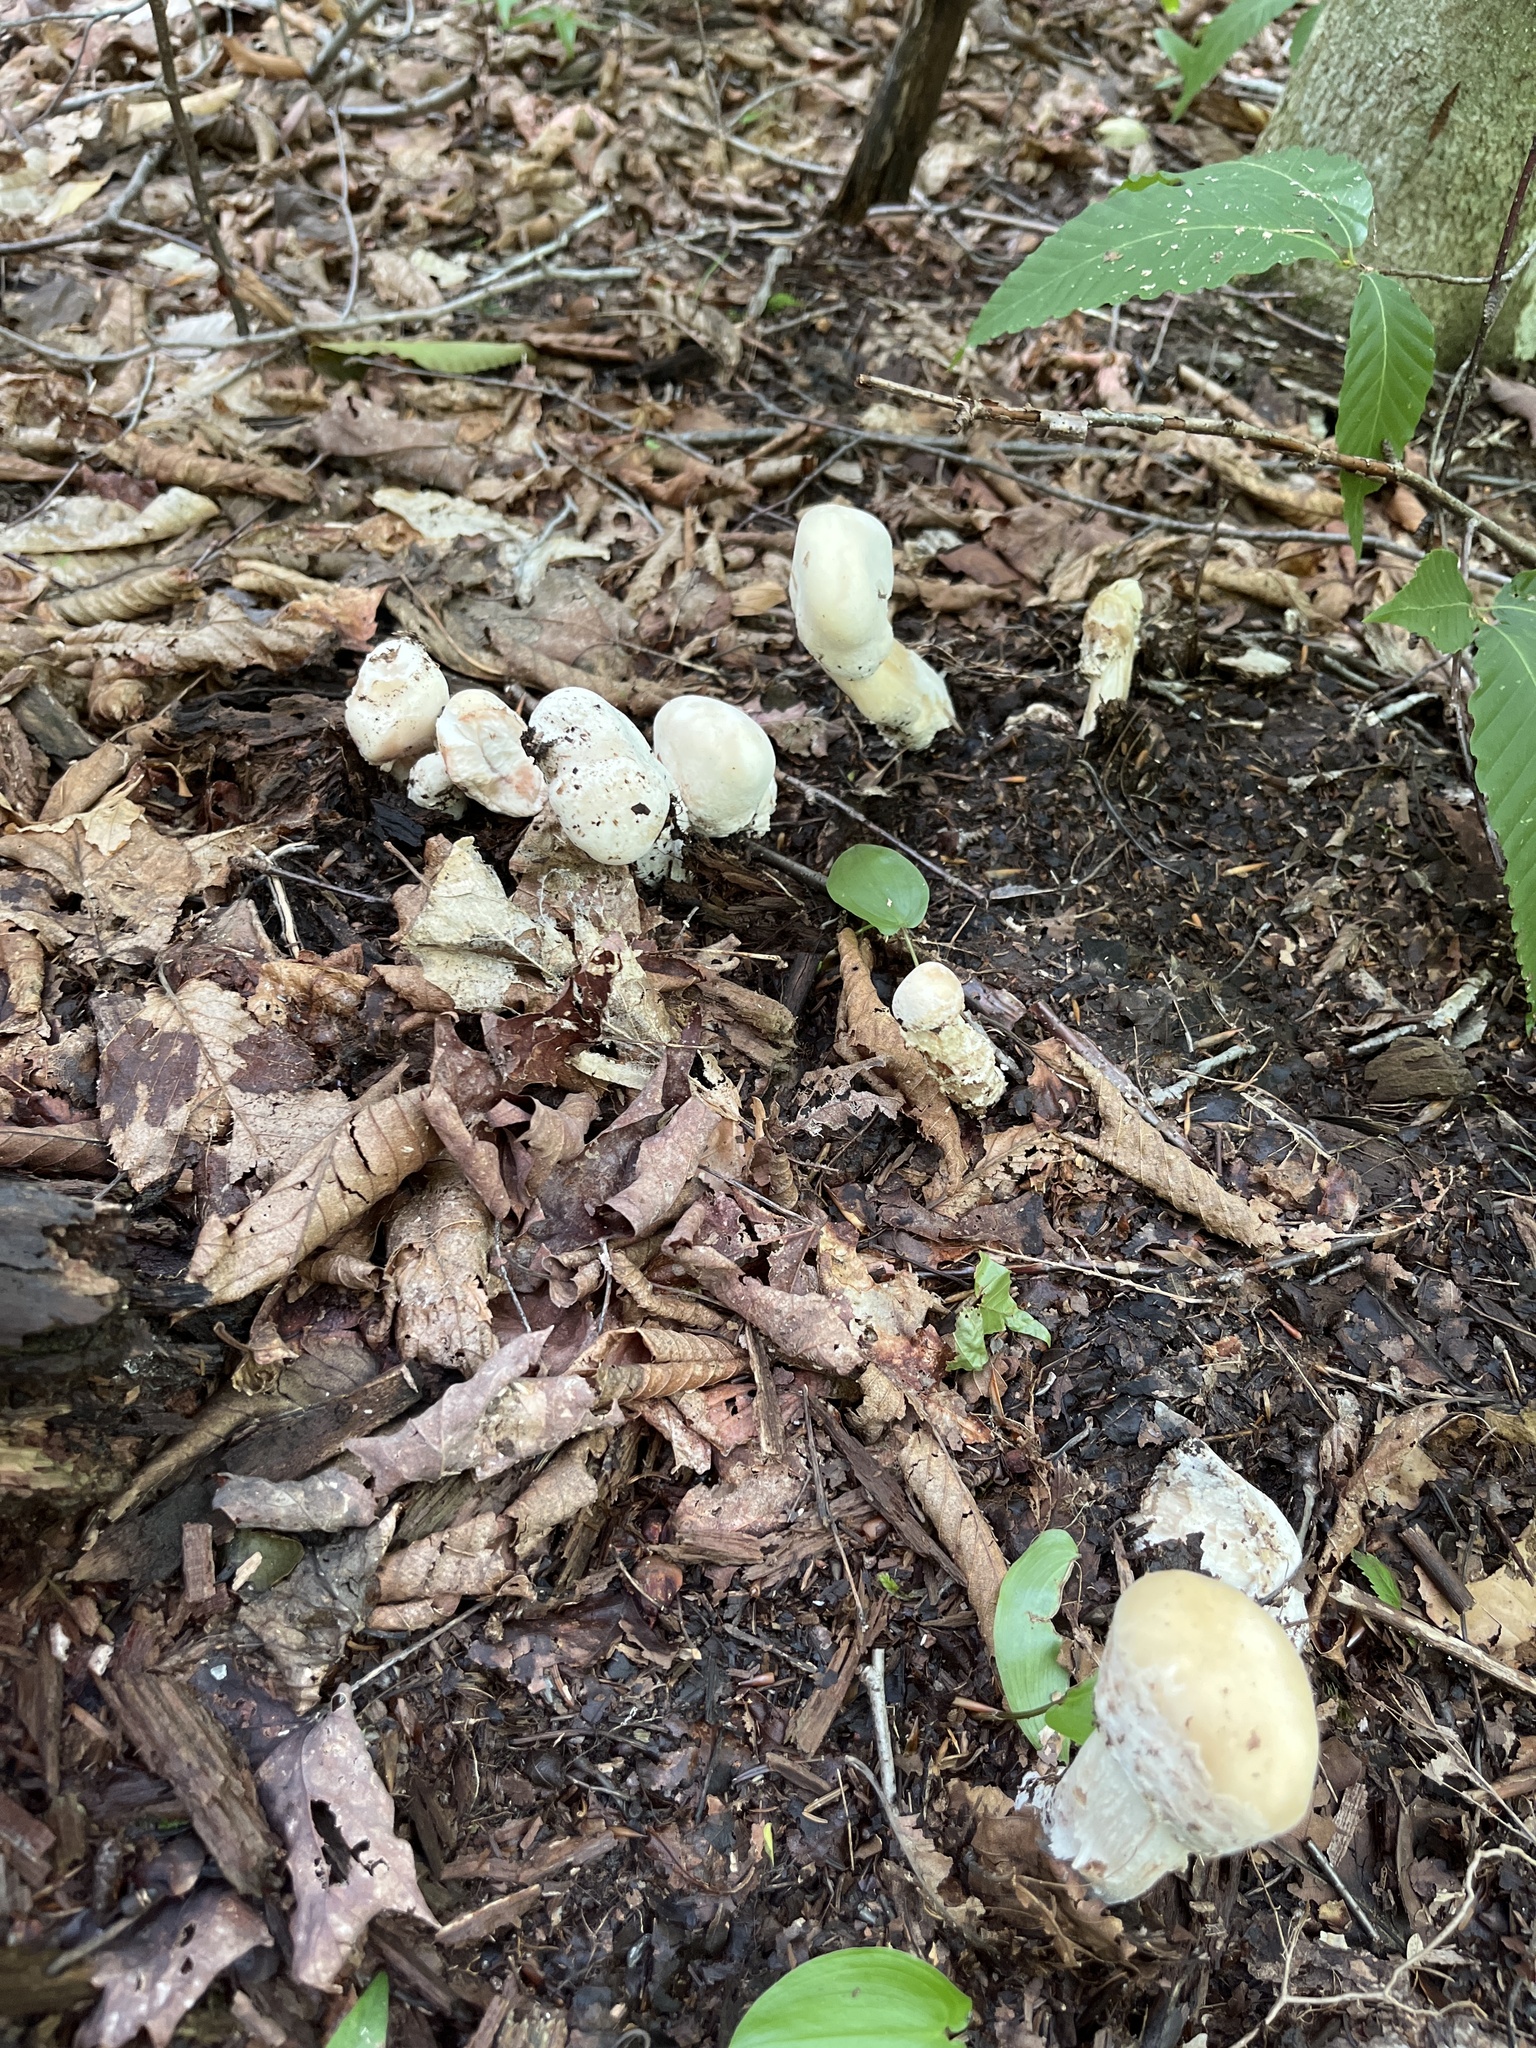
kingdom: Fungi
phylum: Ascomycota
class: Sordariomycetes
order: Hypocreales
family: Hypocreaceae
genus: Hypomyces
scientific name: Hypomyces hyalinus
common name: Amanita mold
